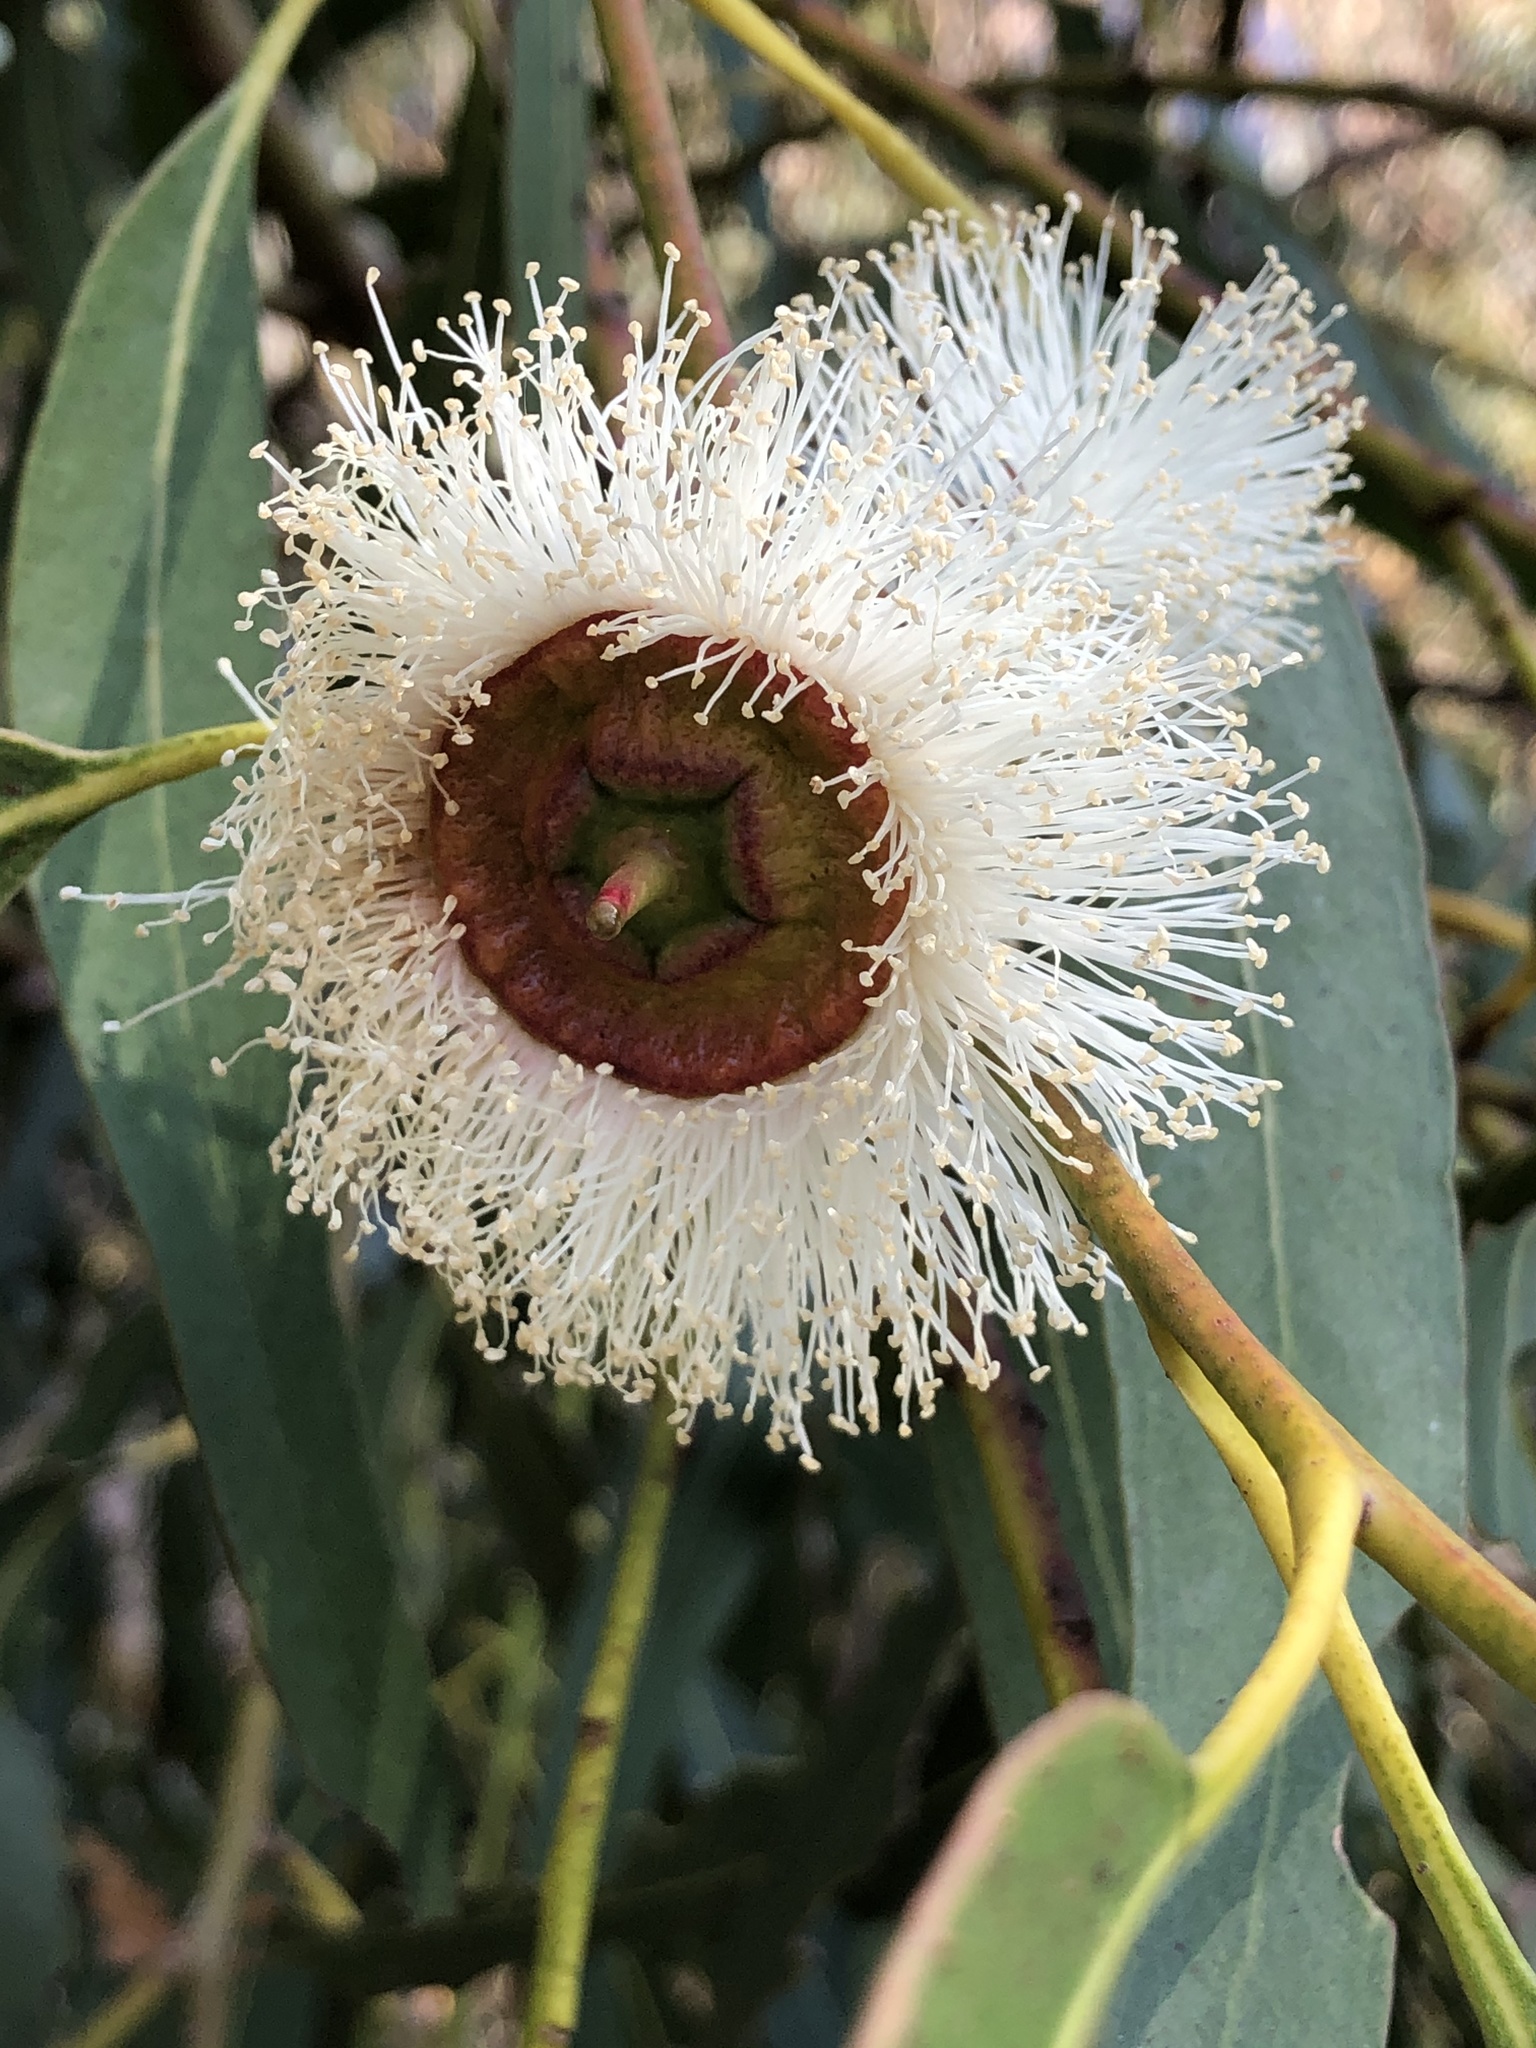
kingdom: Plantae
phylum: Tracheophyta
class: Magnoliopsida
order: Myrtales
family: Myrtaceae
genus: Eucalyptus
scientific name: Eucalyptus globulus
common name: Southern blue-gum
